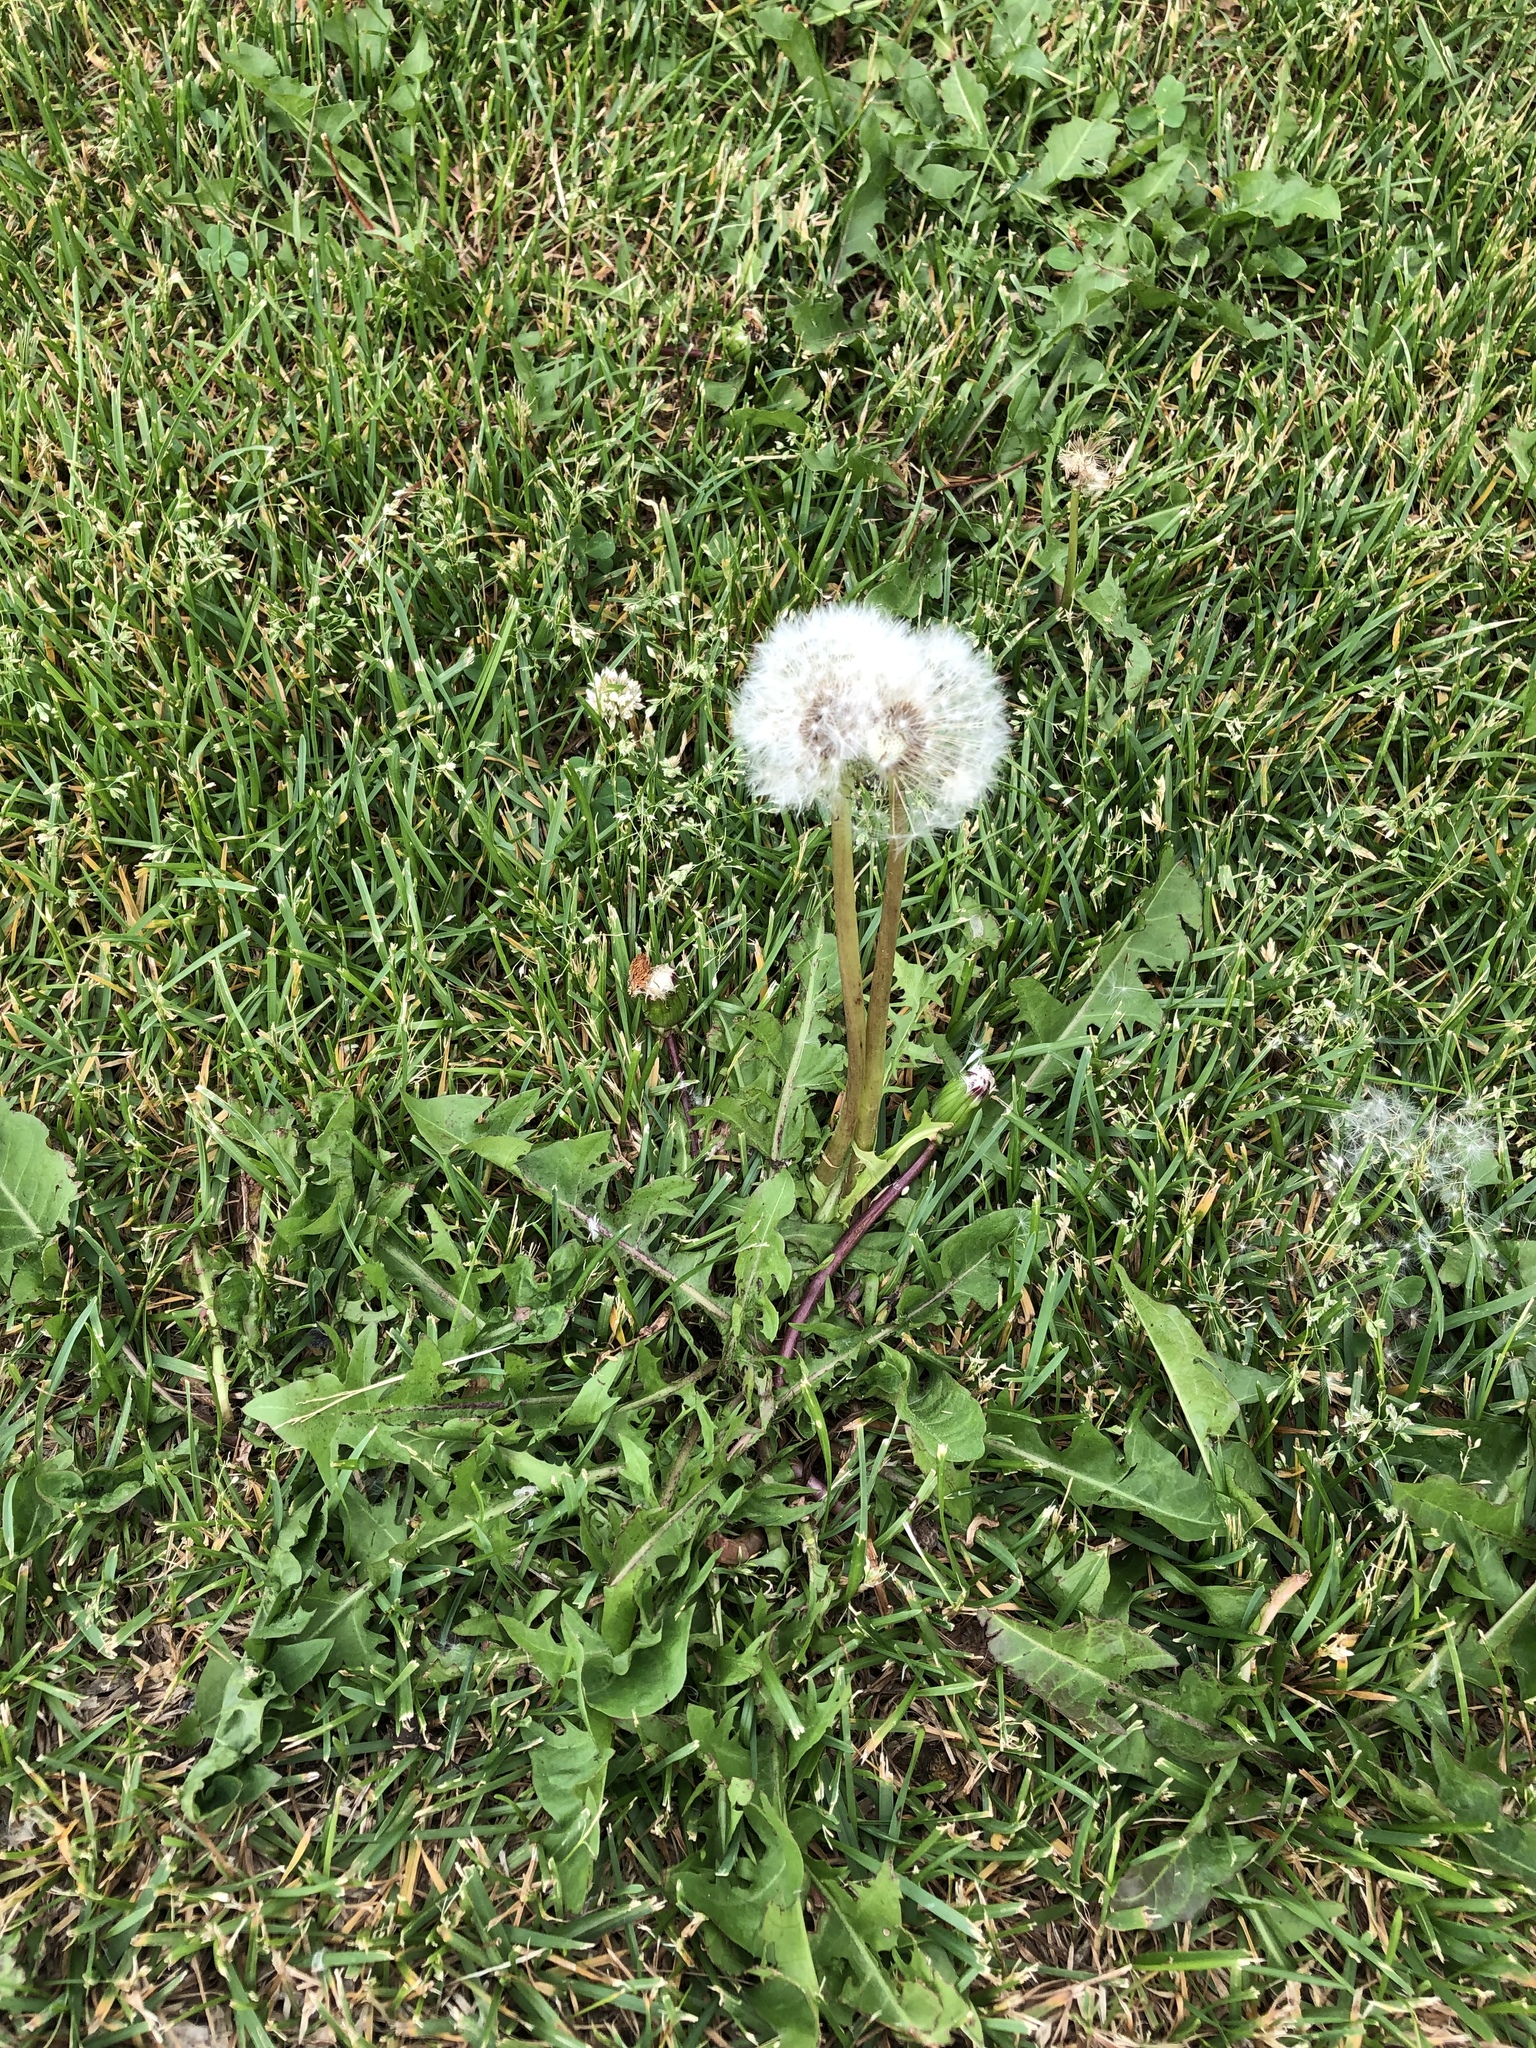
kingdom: Plantae
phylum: Tracheophyta
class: Magnoliopsida
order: Asterales
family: Asteraceae
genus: Taraxacum
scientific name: Taraxacum officinale
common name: Common dandelion
